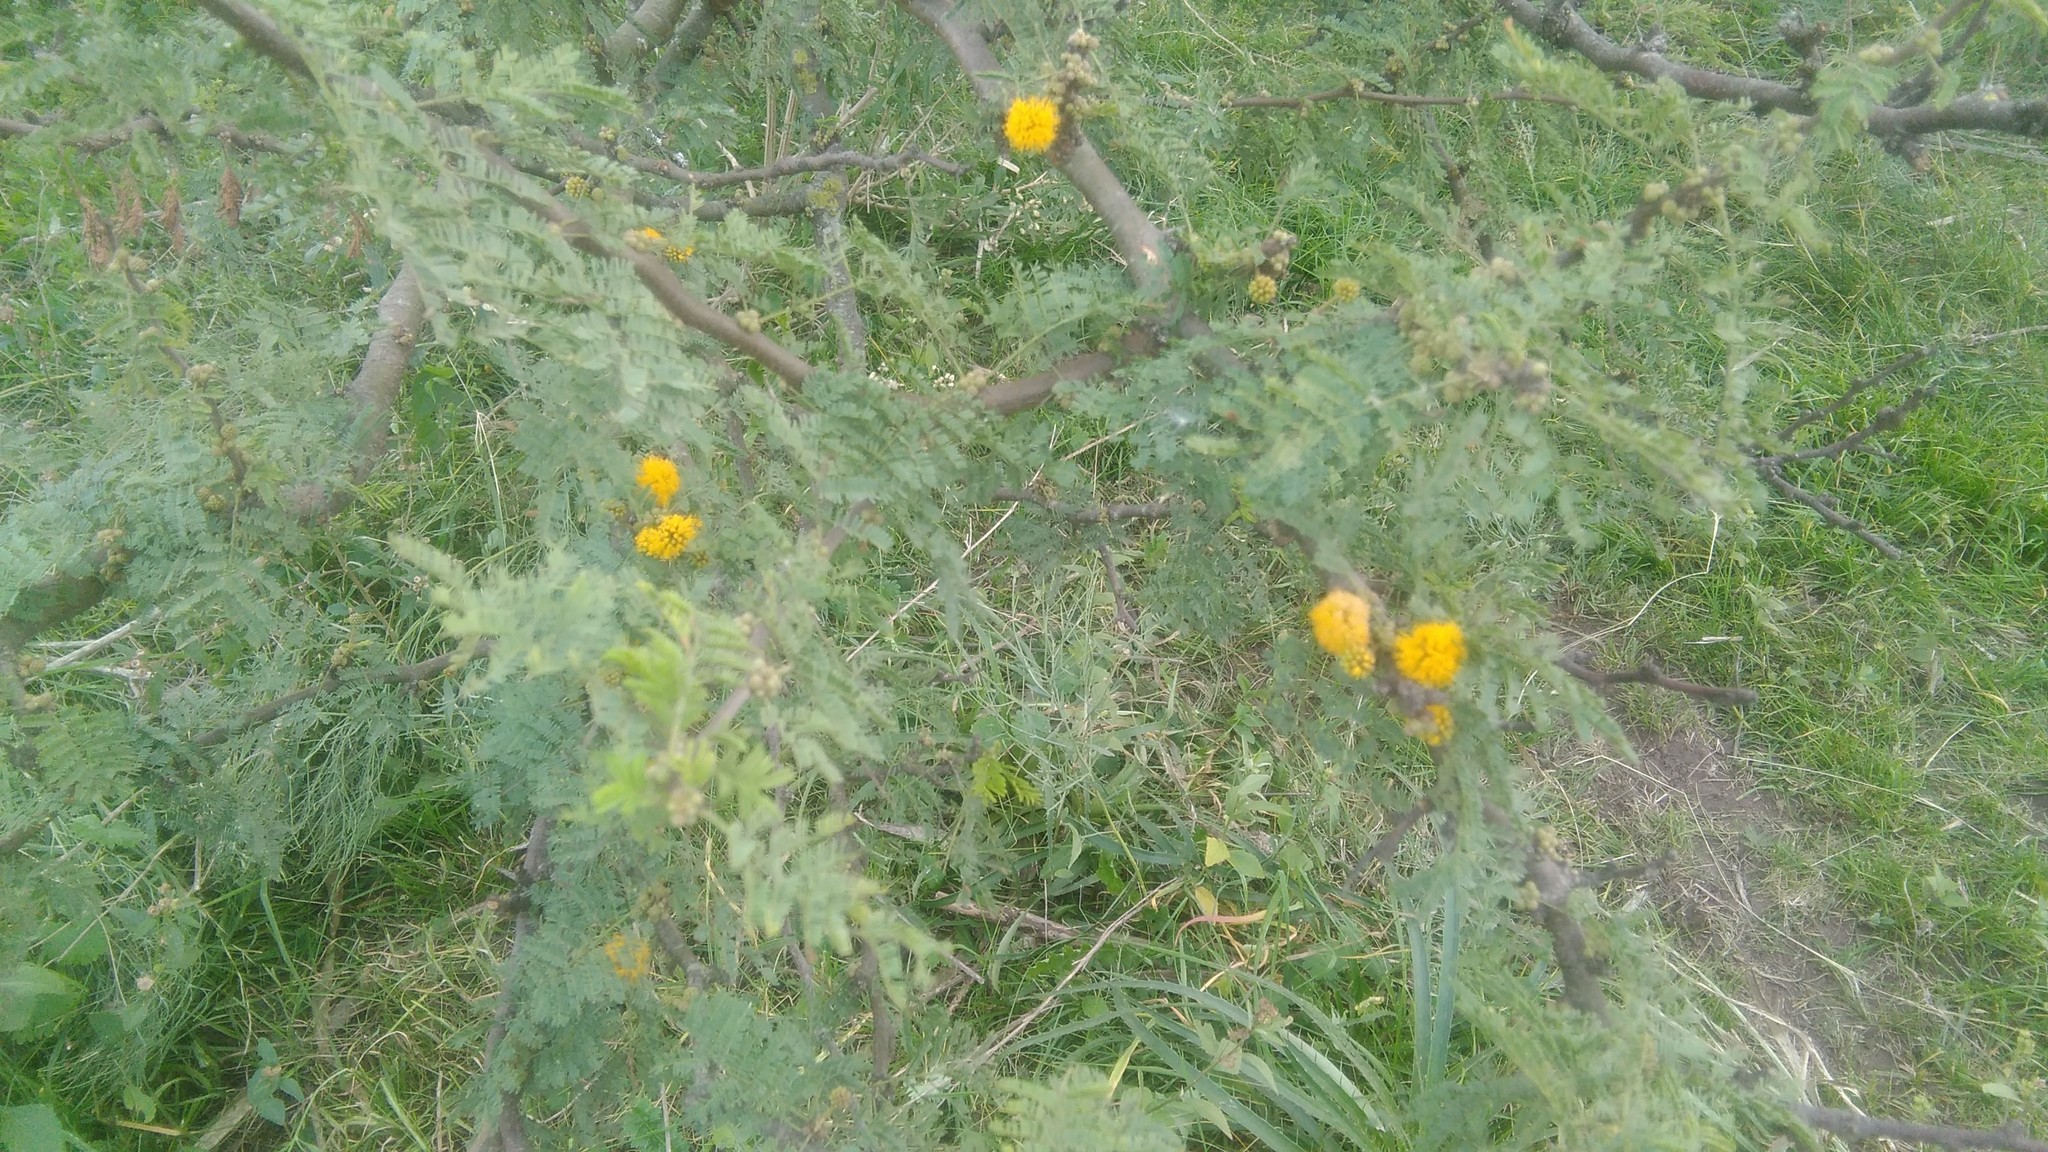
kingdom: Plantae
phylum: Tracheophyta
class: Magnoliopsida
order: Fabales
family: Fabaceae
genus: Vachellia
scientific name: Vachellia caven
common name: Roman cassie
